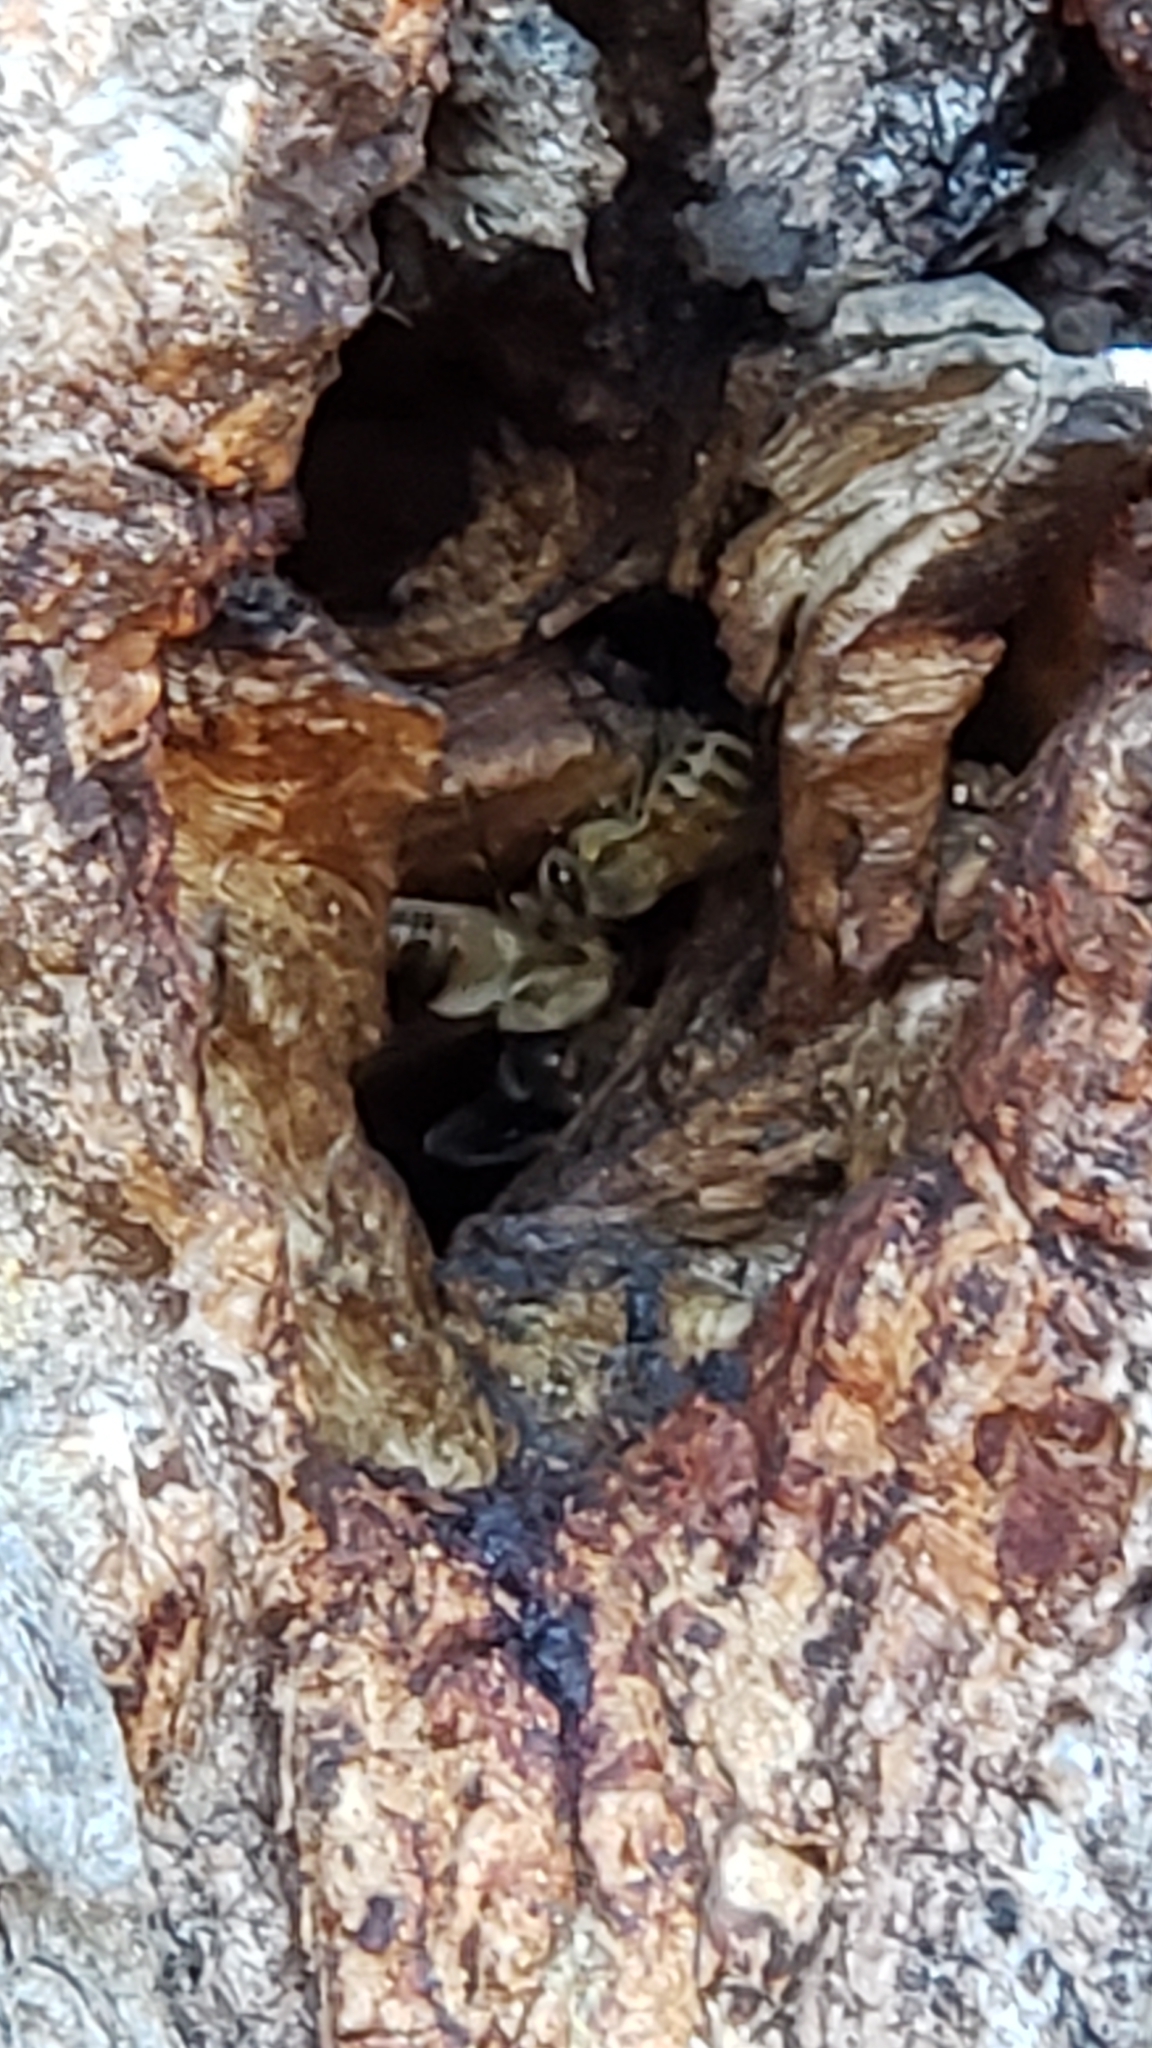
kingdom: Animalia
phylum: Arthropoda
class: Insecta
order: Hymenoptera
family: Apidae
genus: Apis
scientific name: Apis mellifera
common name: Honey bee
